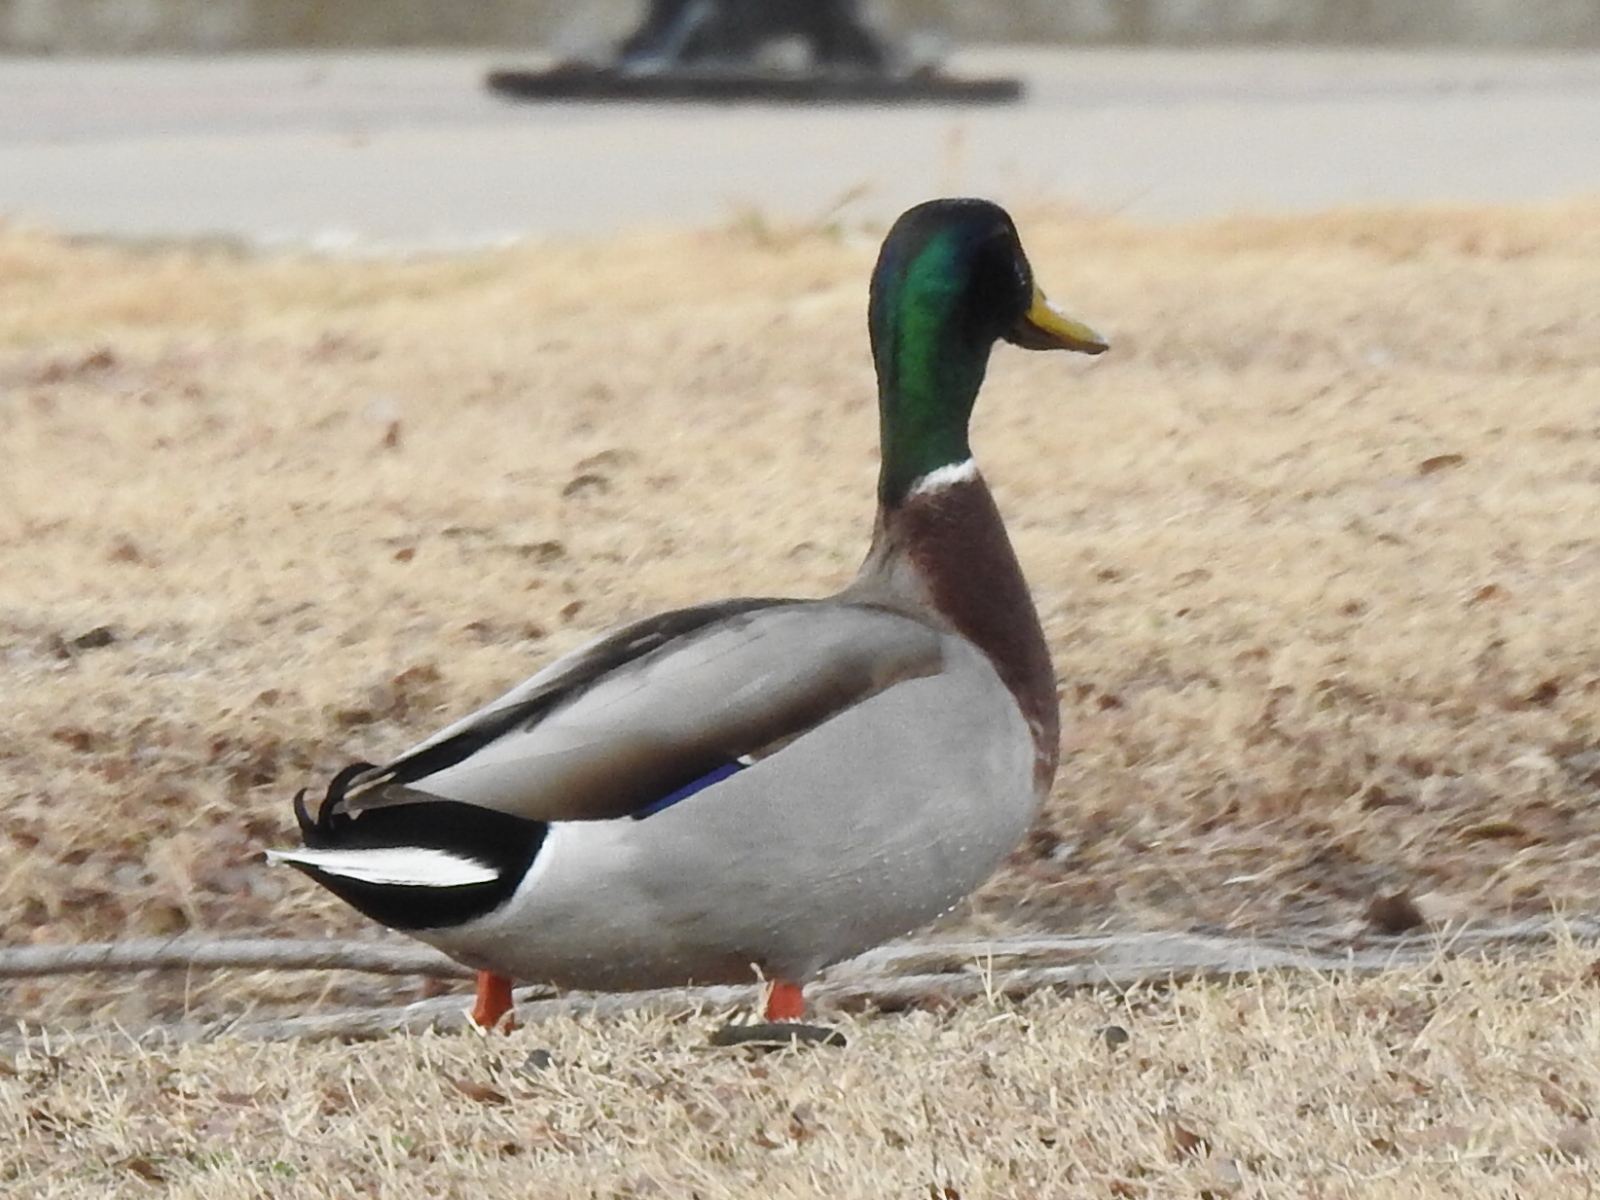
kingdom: Animalia
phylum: Chordata
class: Aves
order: Anseriformes
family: Anatidae
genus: Anas
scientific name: Anas platyrhynchos
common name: Mallard
